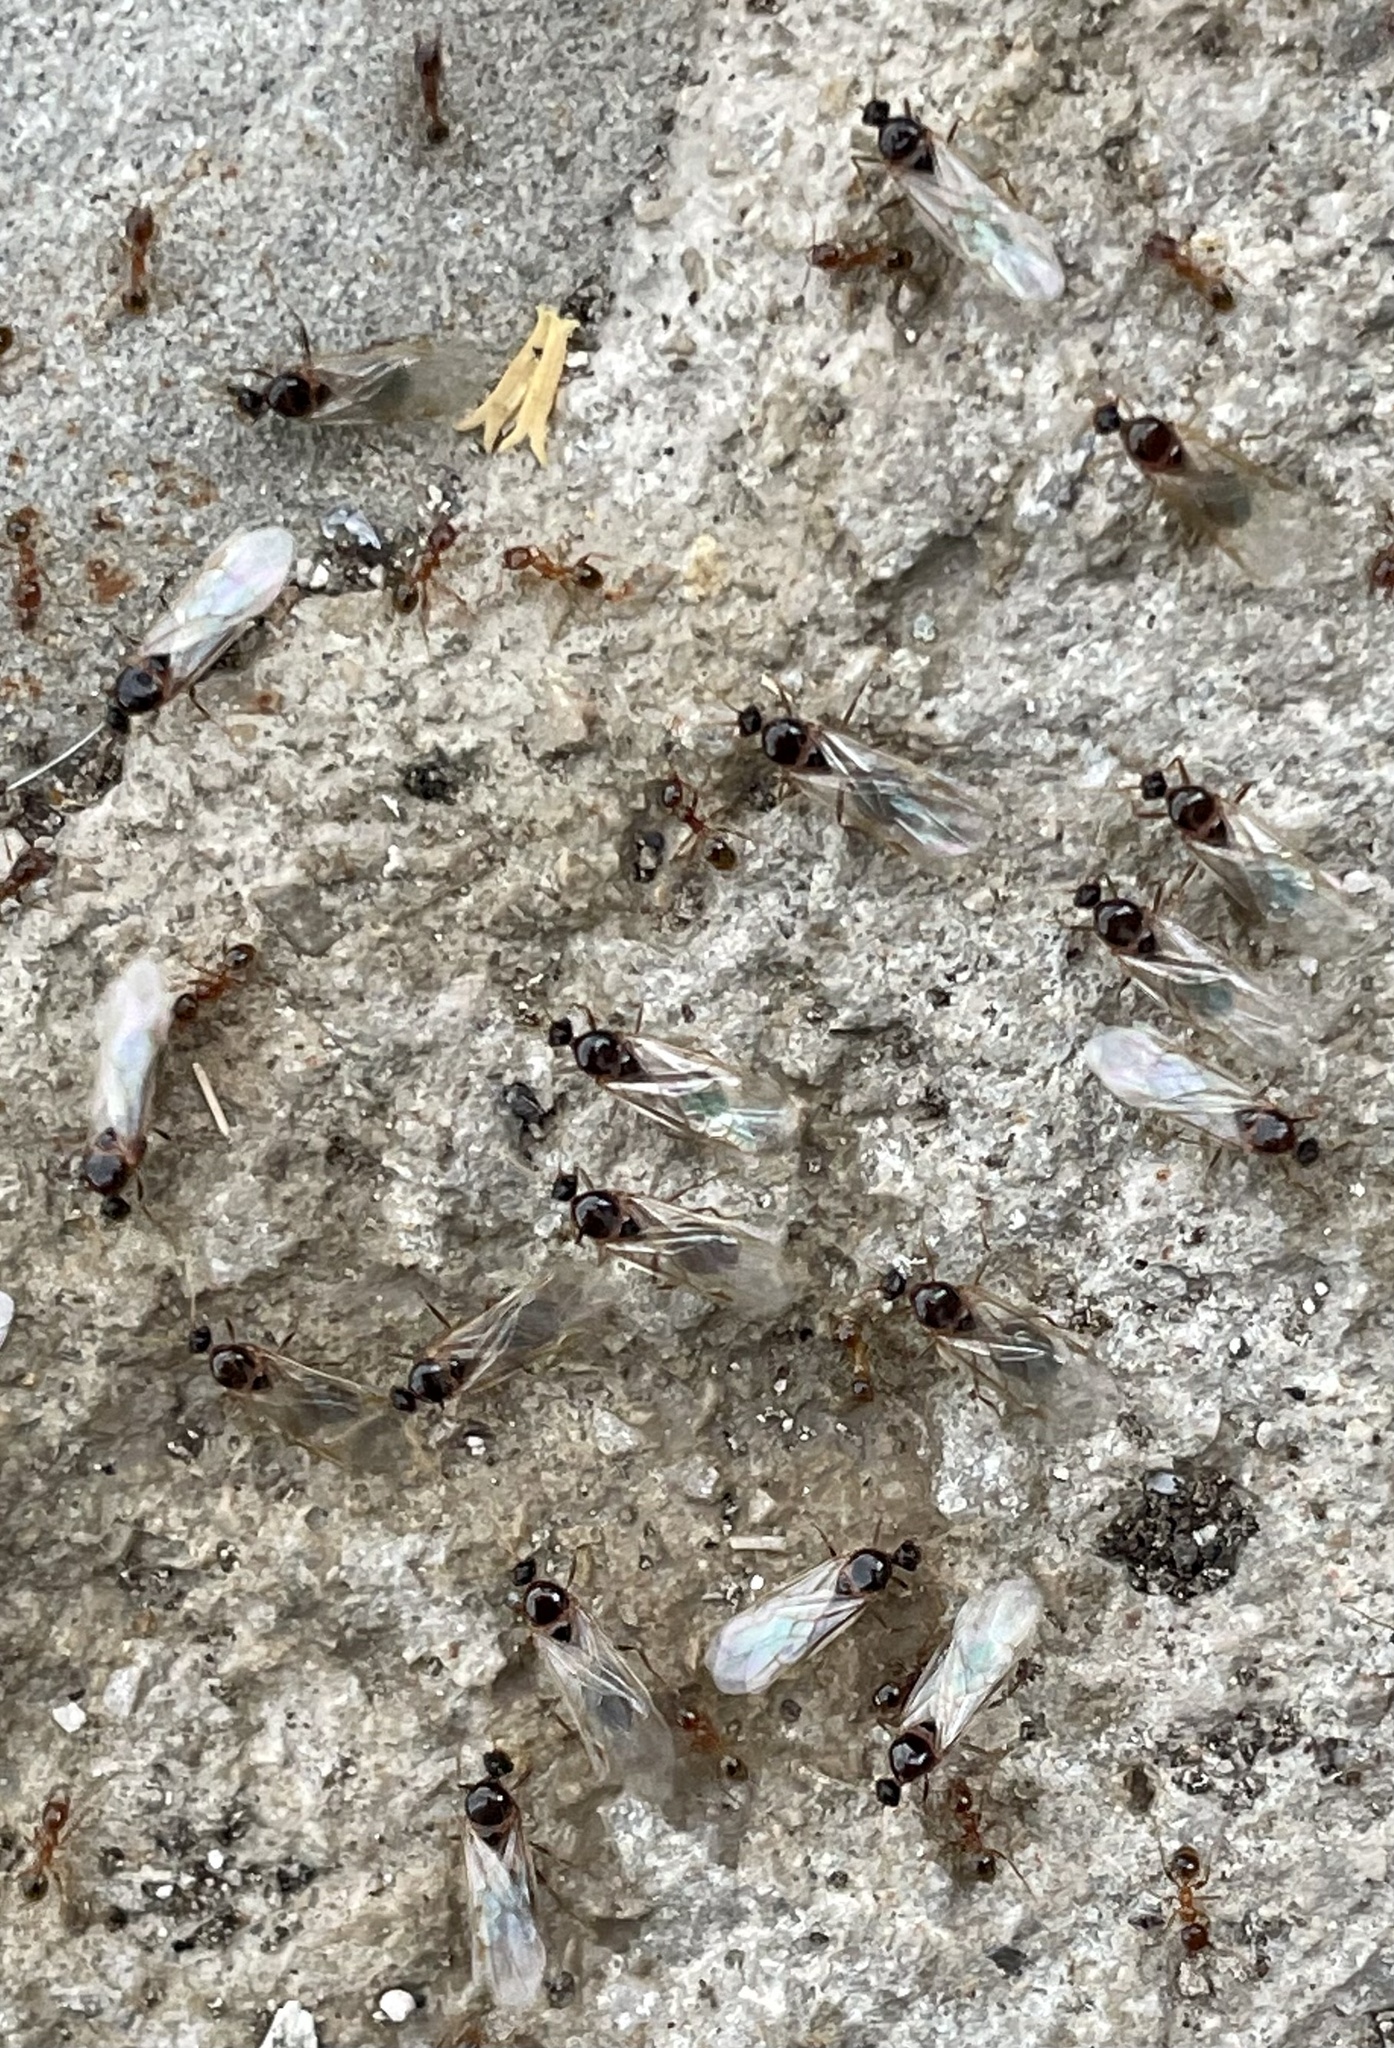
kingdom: Animalia
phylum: Arthropoda
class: Insecta
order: Hymenoptera
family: Formicidae
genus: Pheidole
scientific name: Pheidole pallidula
